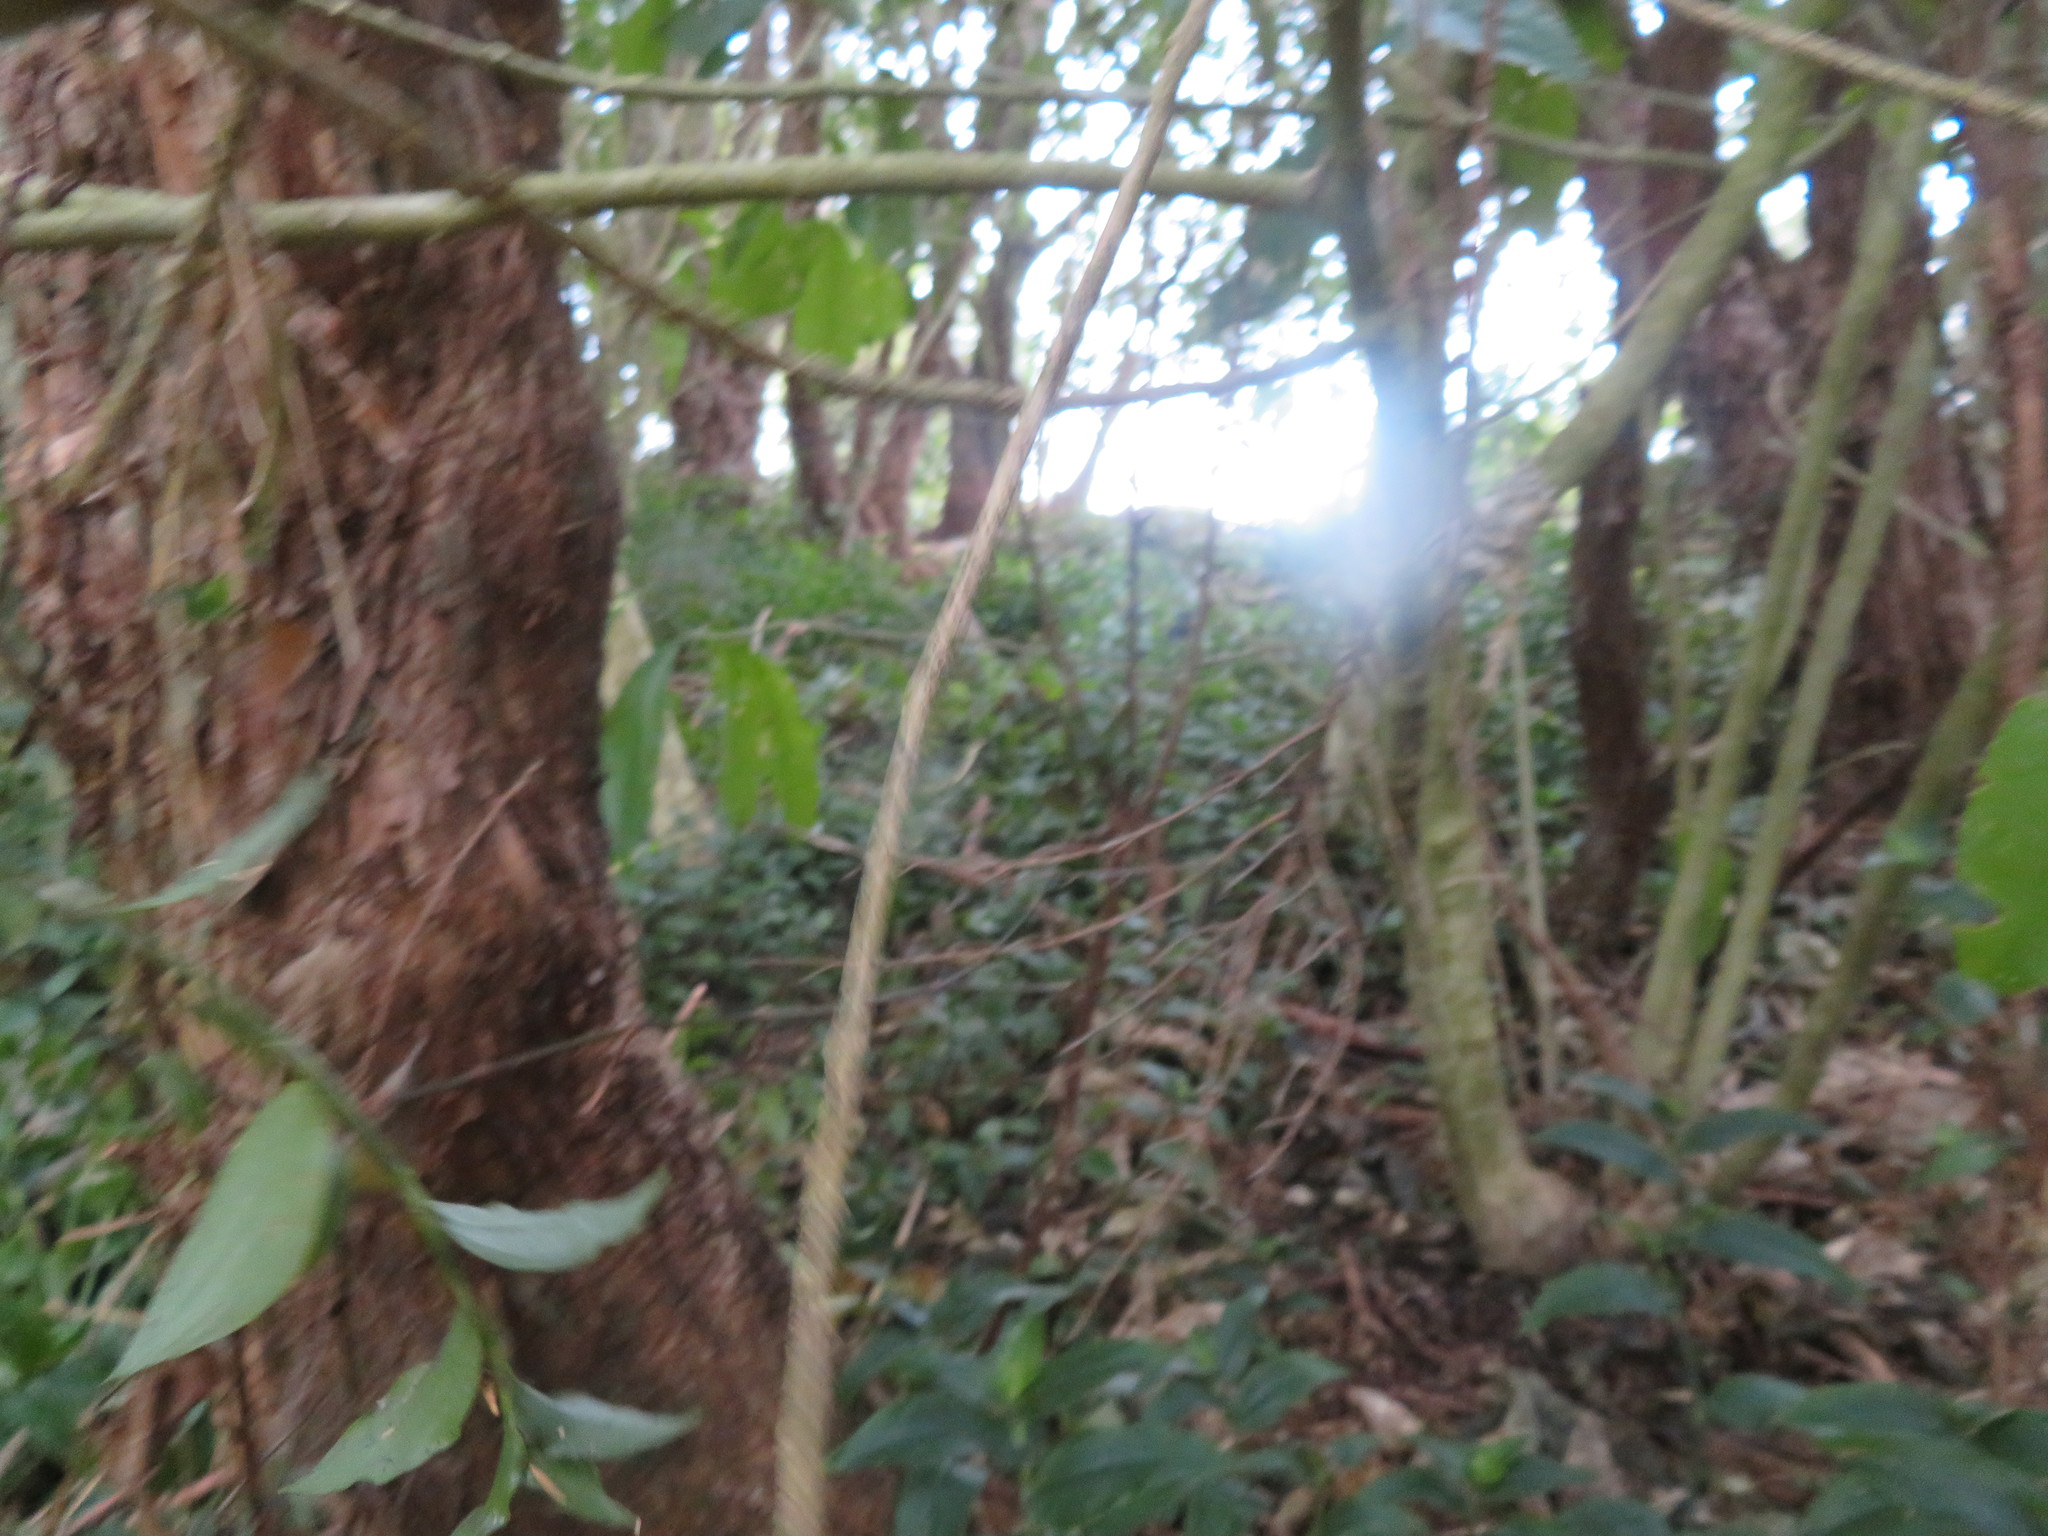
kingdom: Plantae
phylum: Tracheophyta
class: Magnoliopsida
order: Malpighiales
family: Violaceae
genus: Melicytus
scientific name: Melicytus ramiflorus
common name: Mahoe
